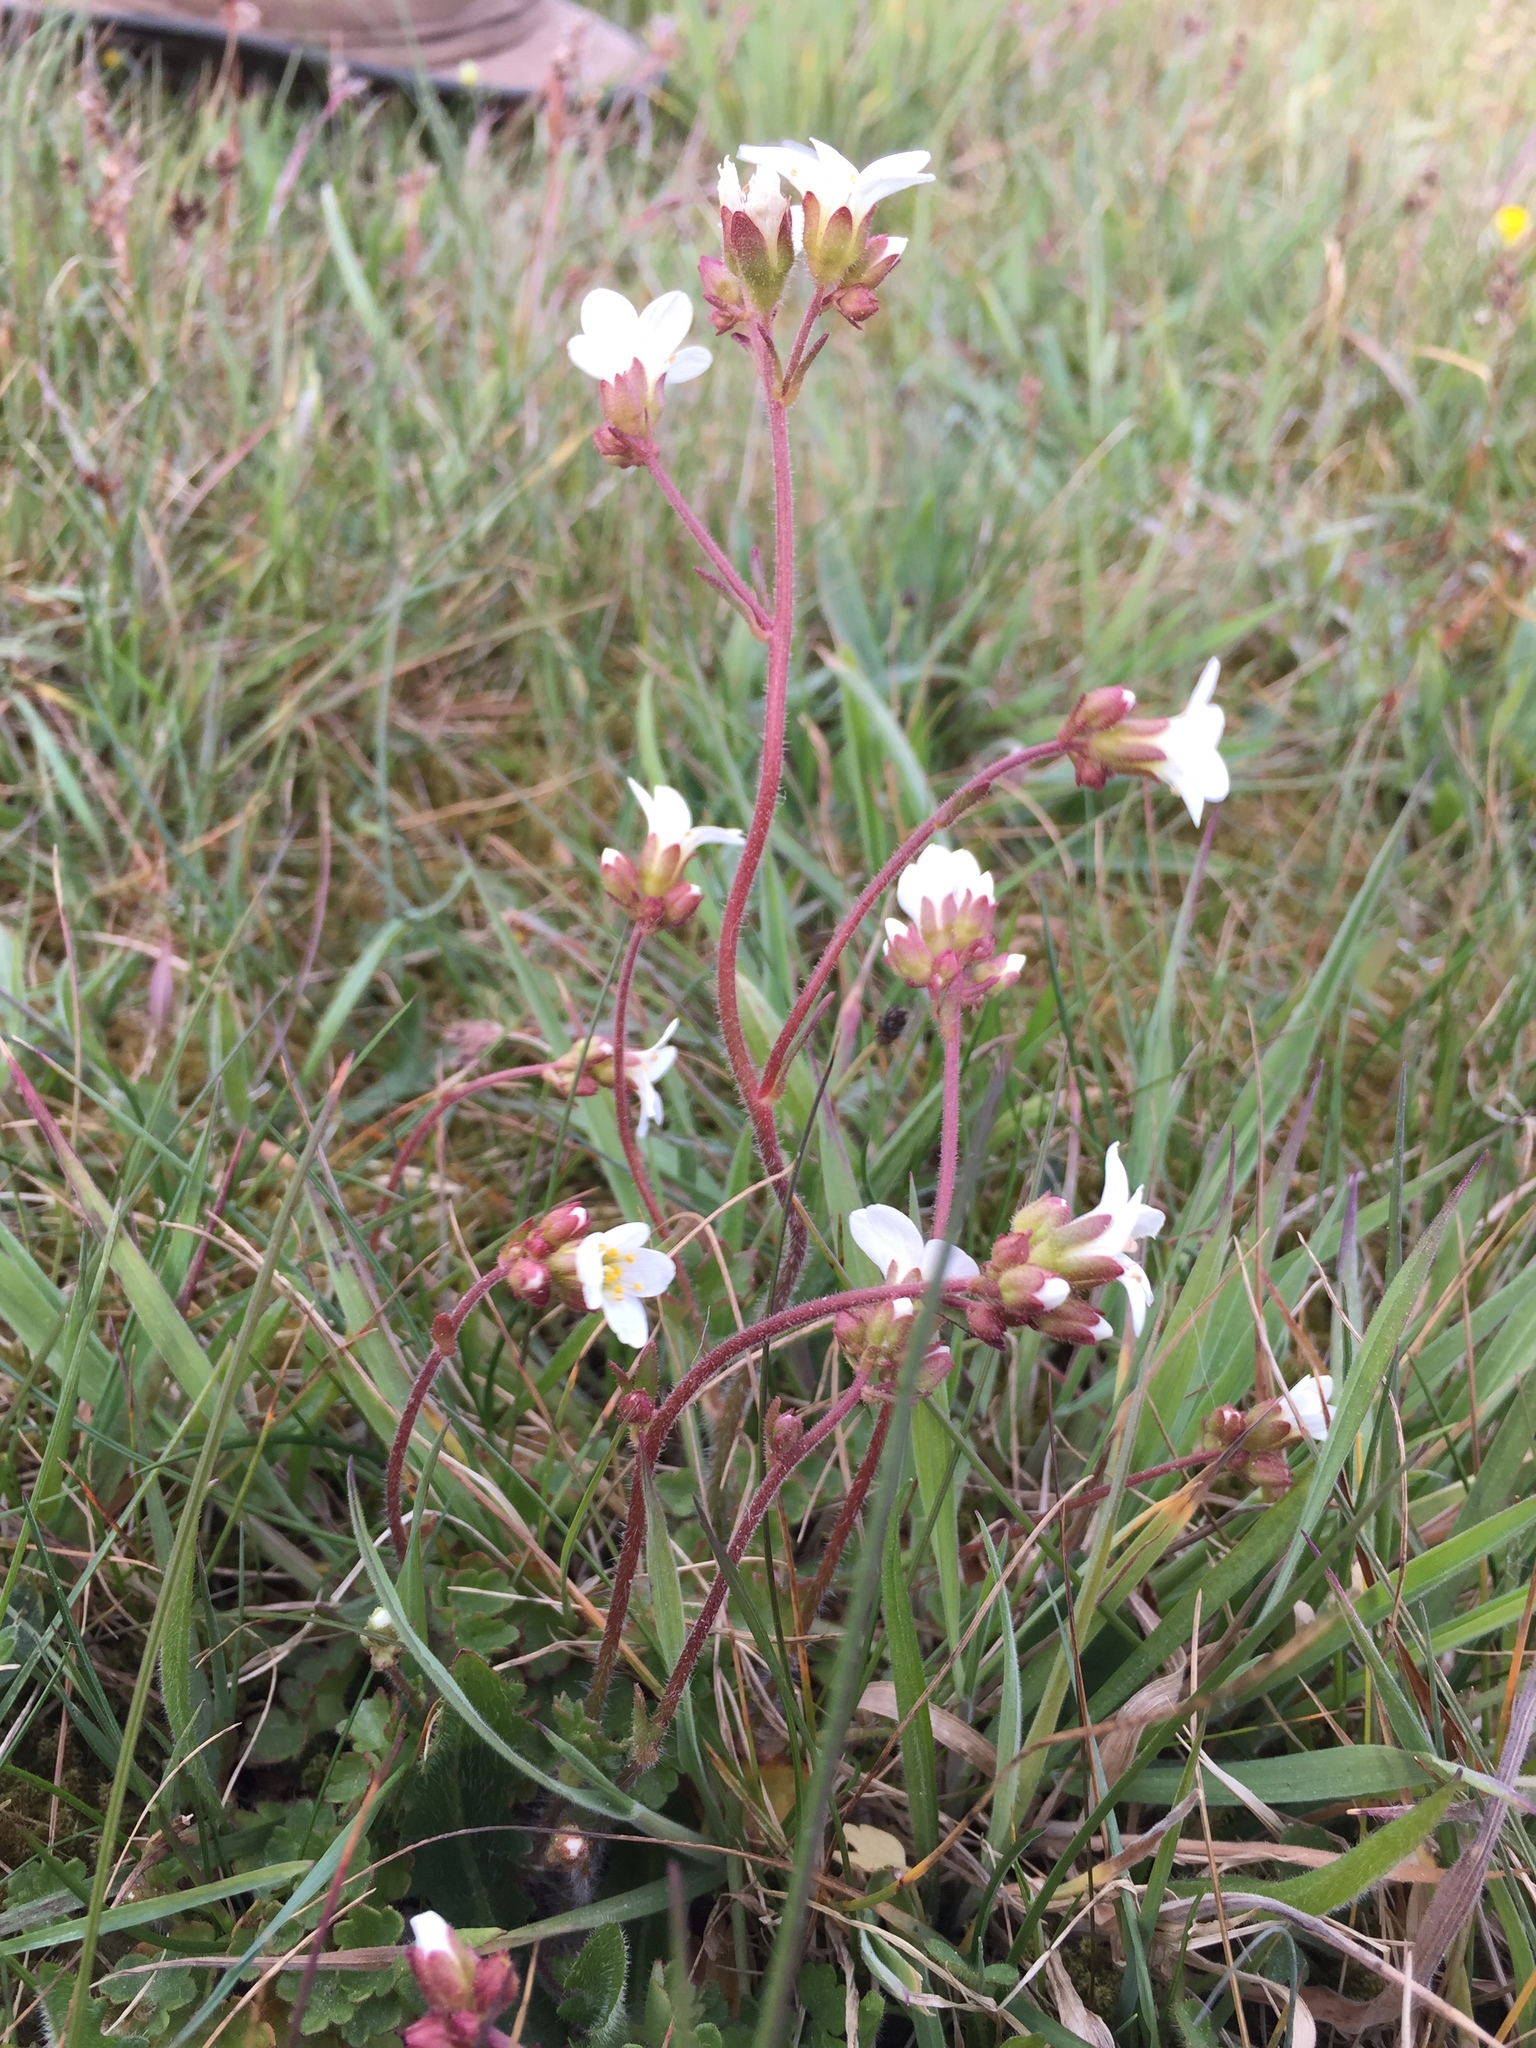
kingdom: Plantae
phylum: Tracheophyta
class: Magnoliopsida
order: Saxifragales
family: Saxifragaceae
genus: Saxifraga
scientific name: Saxifraga granulata
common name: Meadow saxifrage
